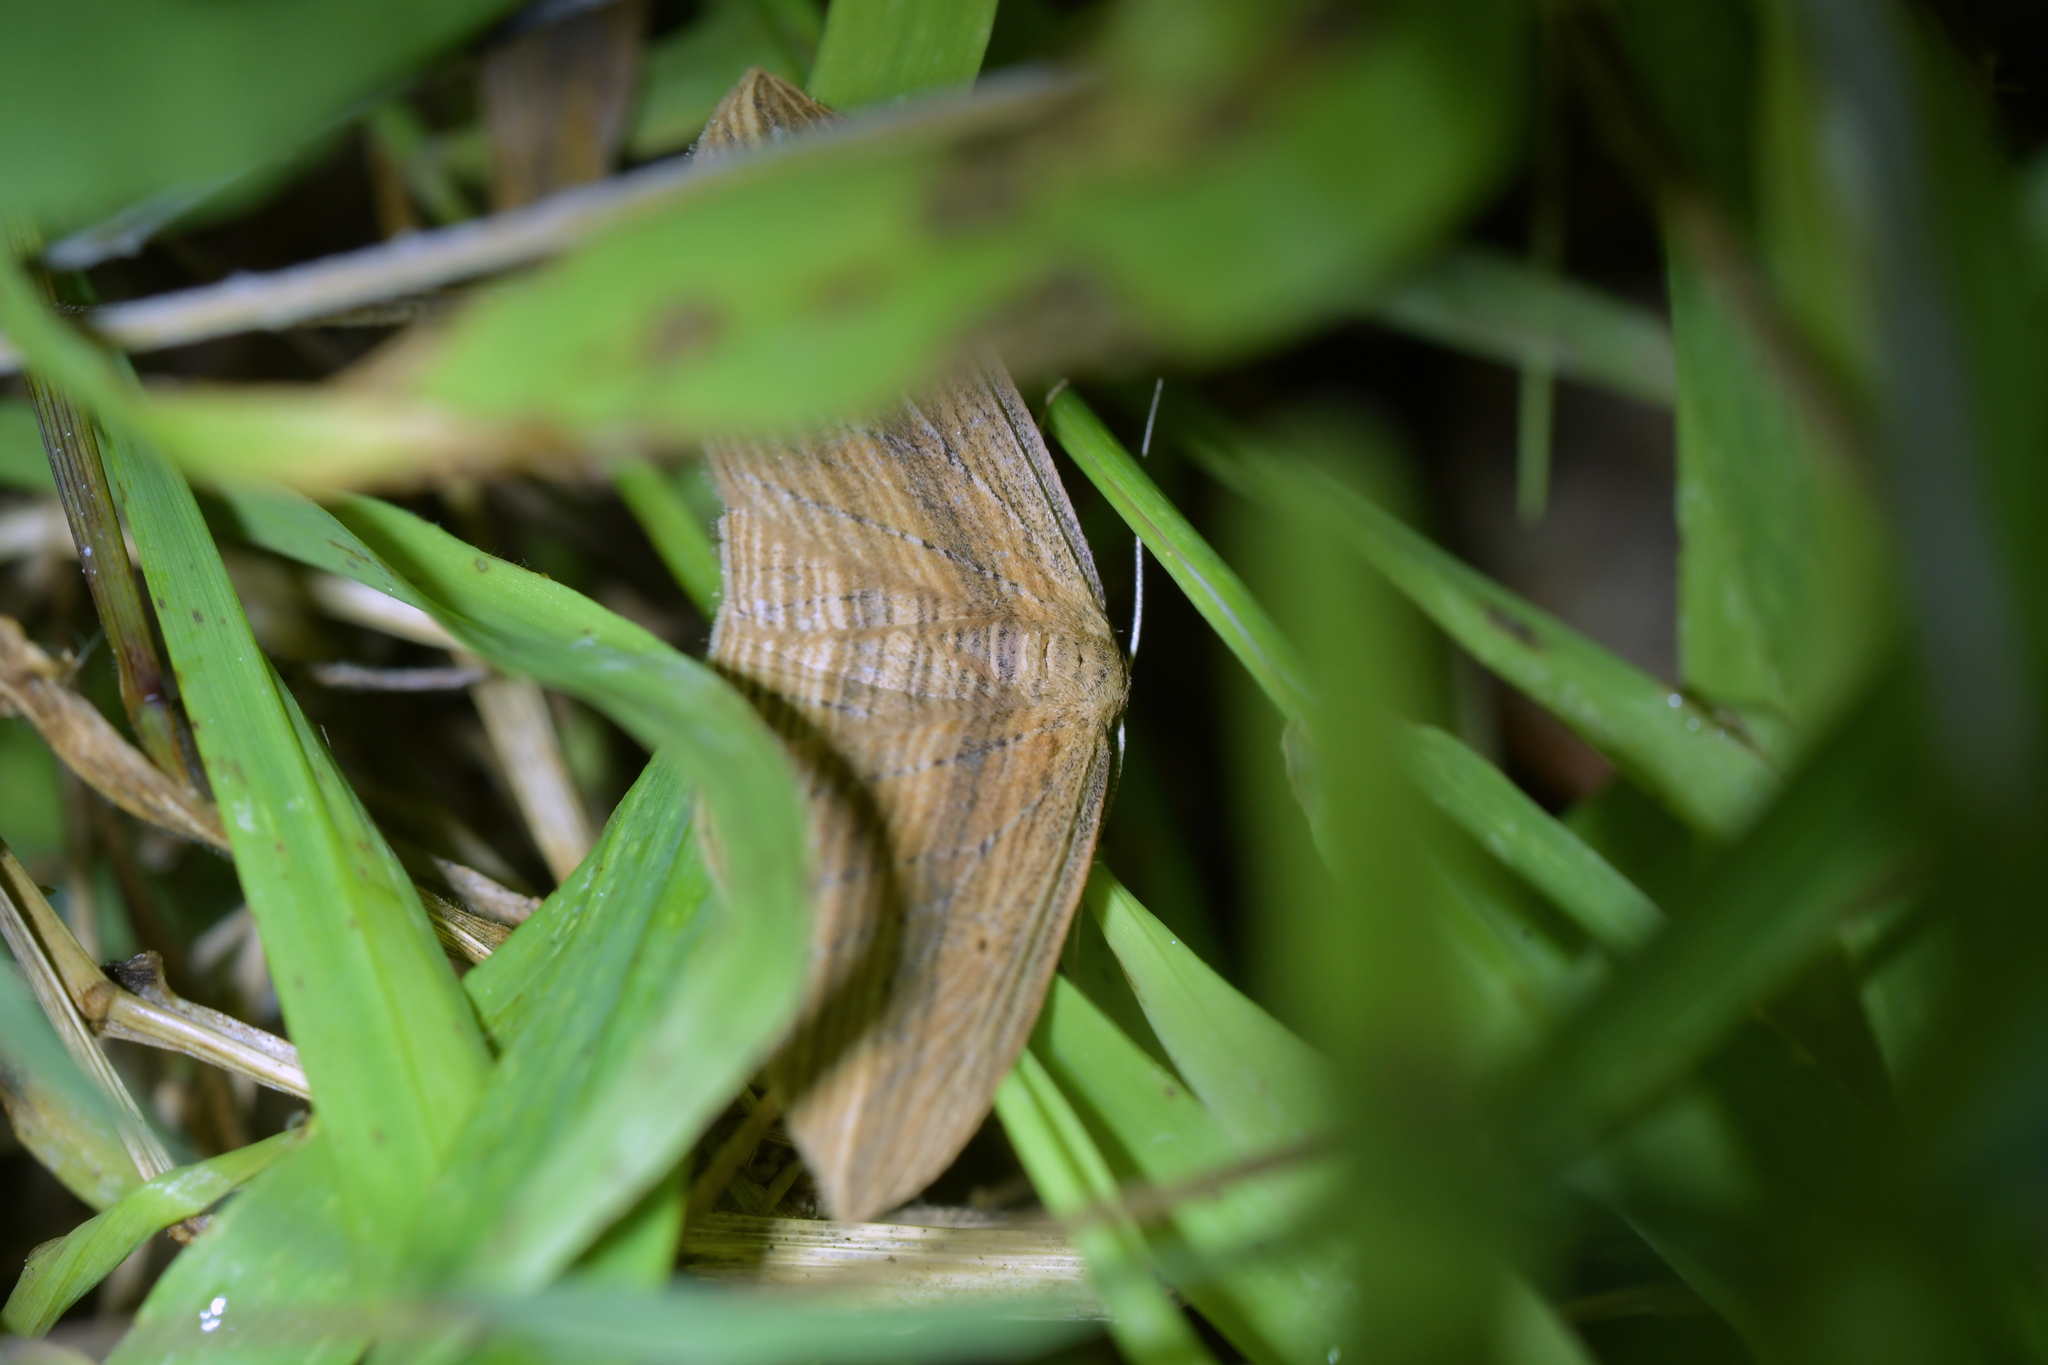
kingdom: Animalia
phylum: Arthropoda
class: Insecta
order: Lepidoptera
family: Geometridae
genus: Epiphryne
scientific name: Epiphryne verriculata
